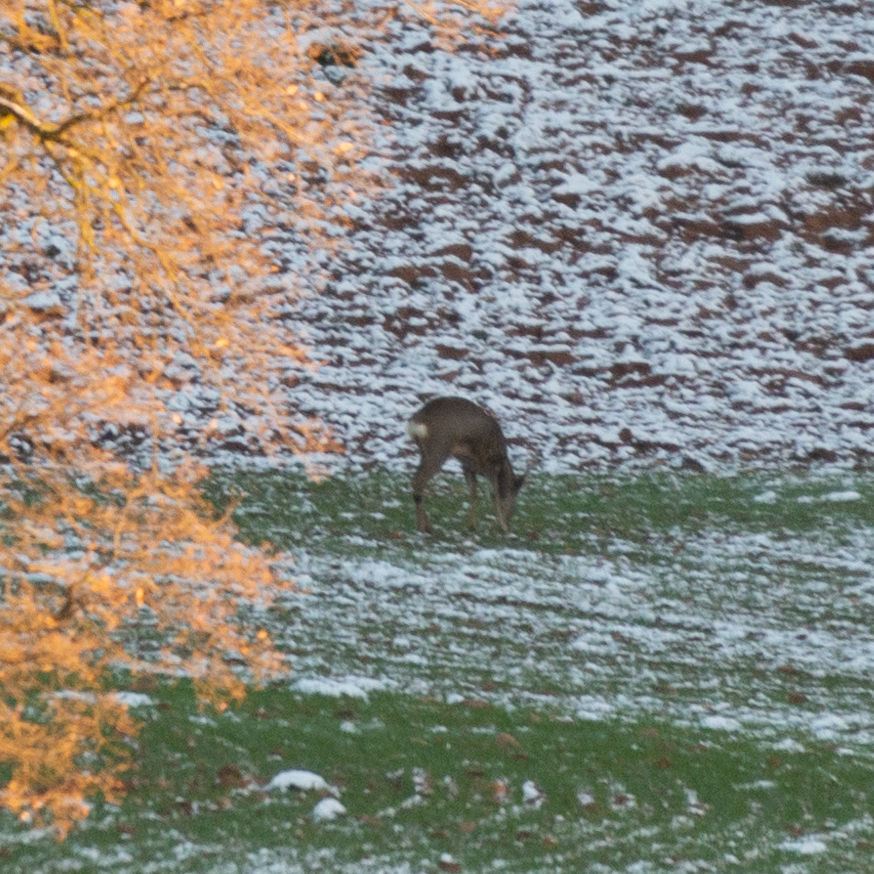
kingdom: Animalia
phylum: Chordata
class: Mammalia
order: Artiodactyla
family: Cervidae
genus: Capreolus
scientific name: Capreolus capreolus
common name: Western roe deer
